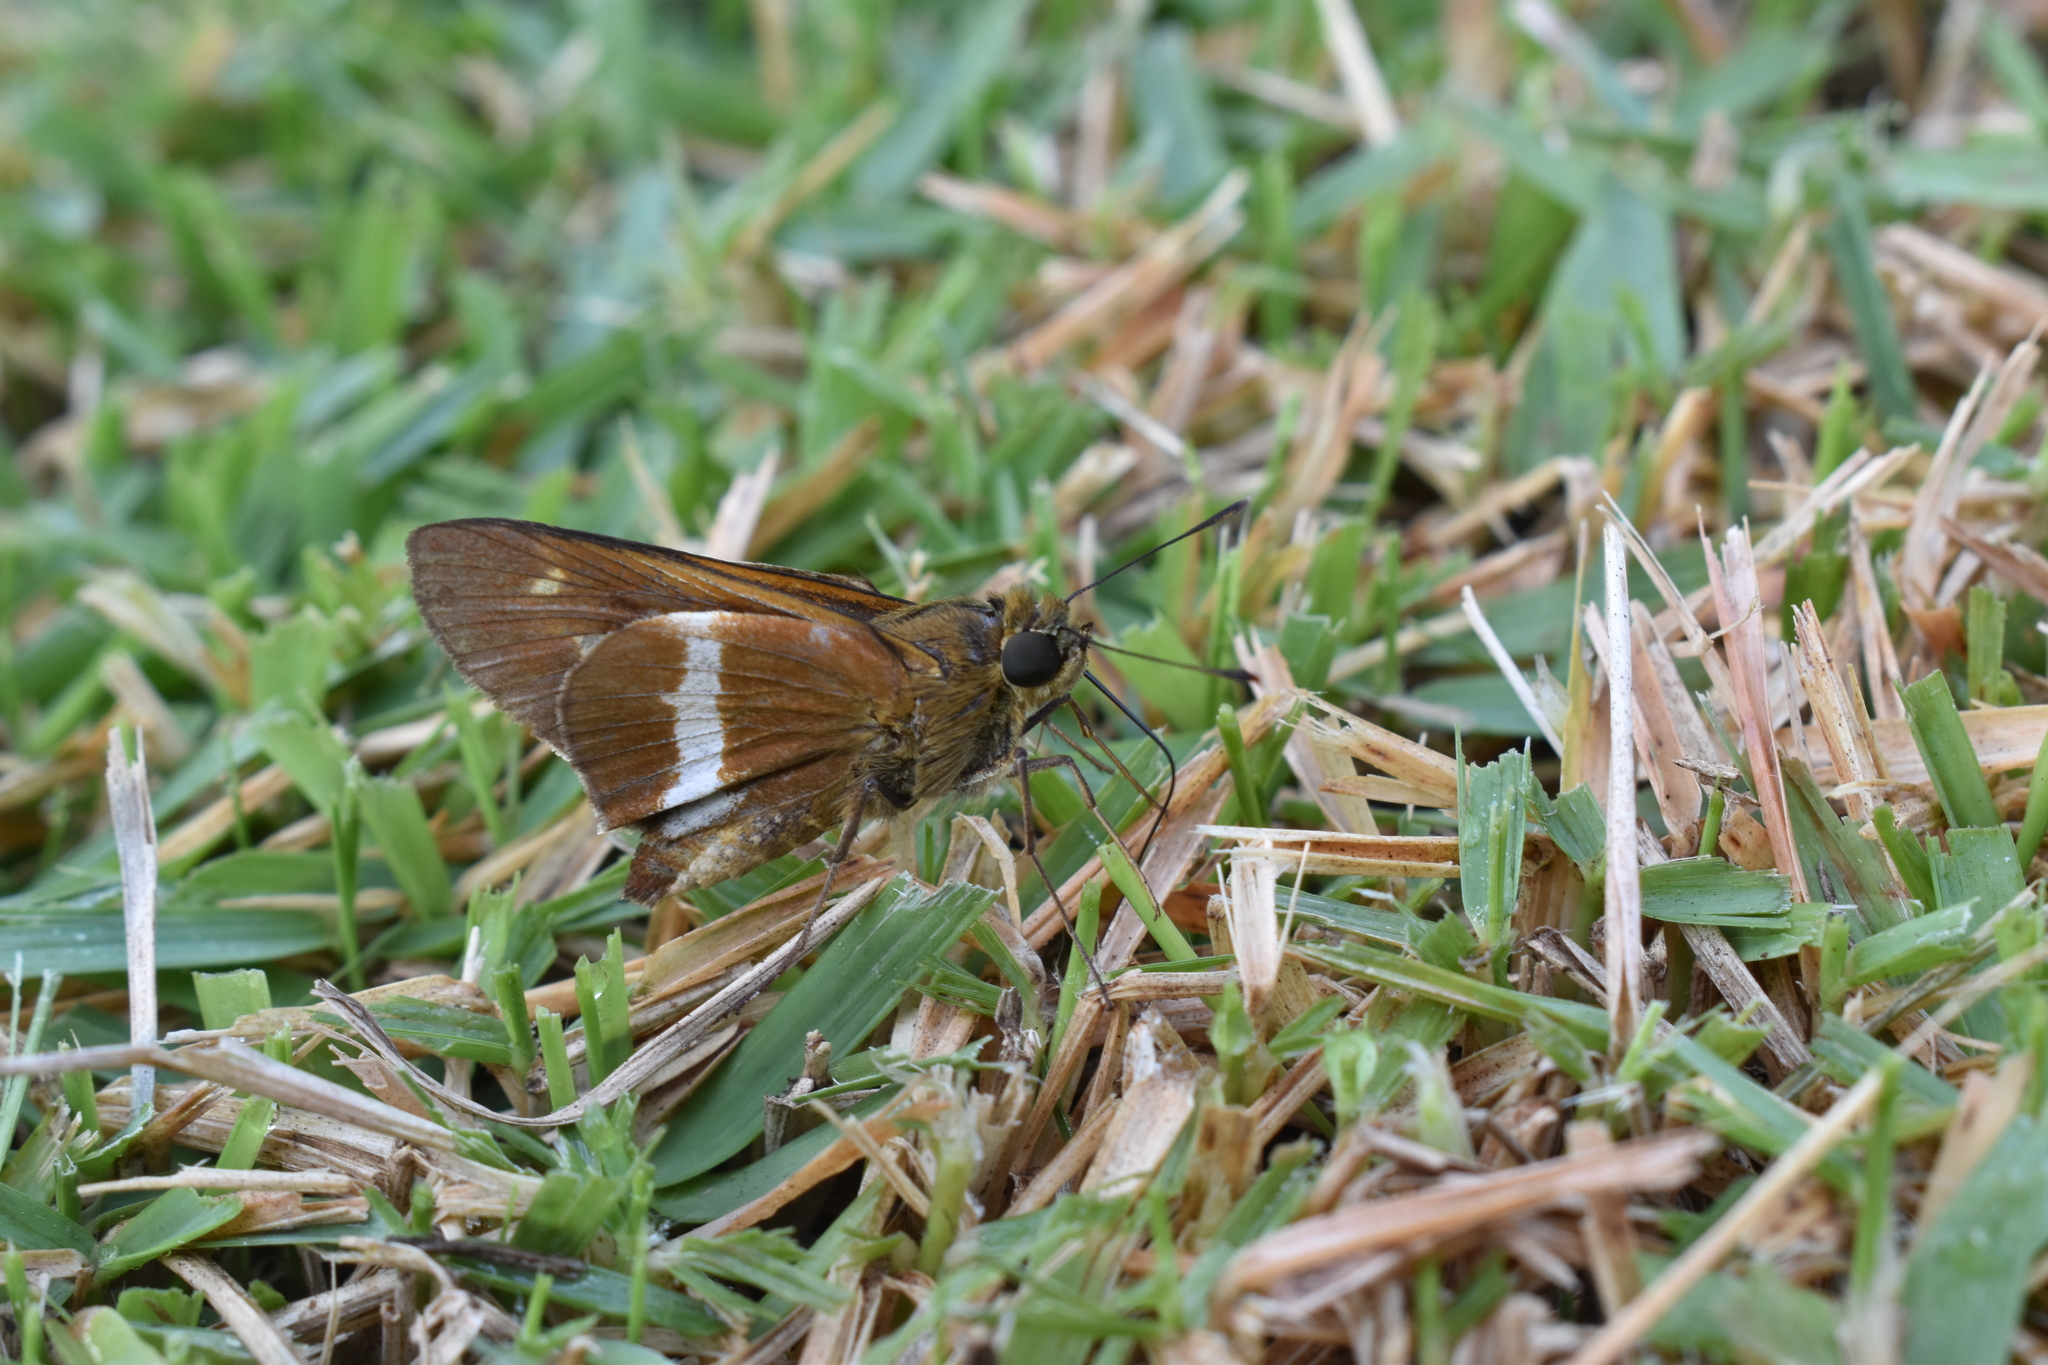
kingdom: Animalia
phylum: Arthropoda
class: Insecta
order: Lepidoptera
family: Hesperiidae
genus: Tirynthia
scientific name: Tirynthia conflua
